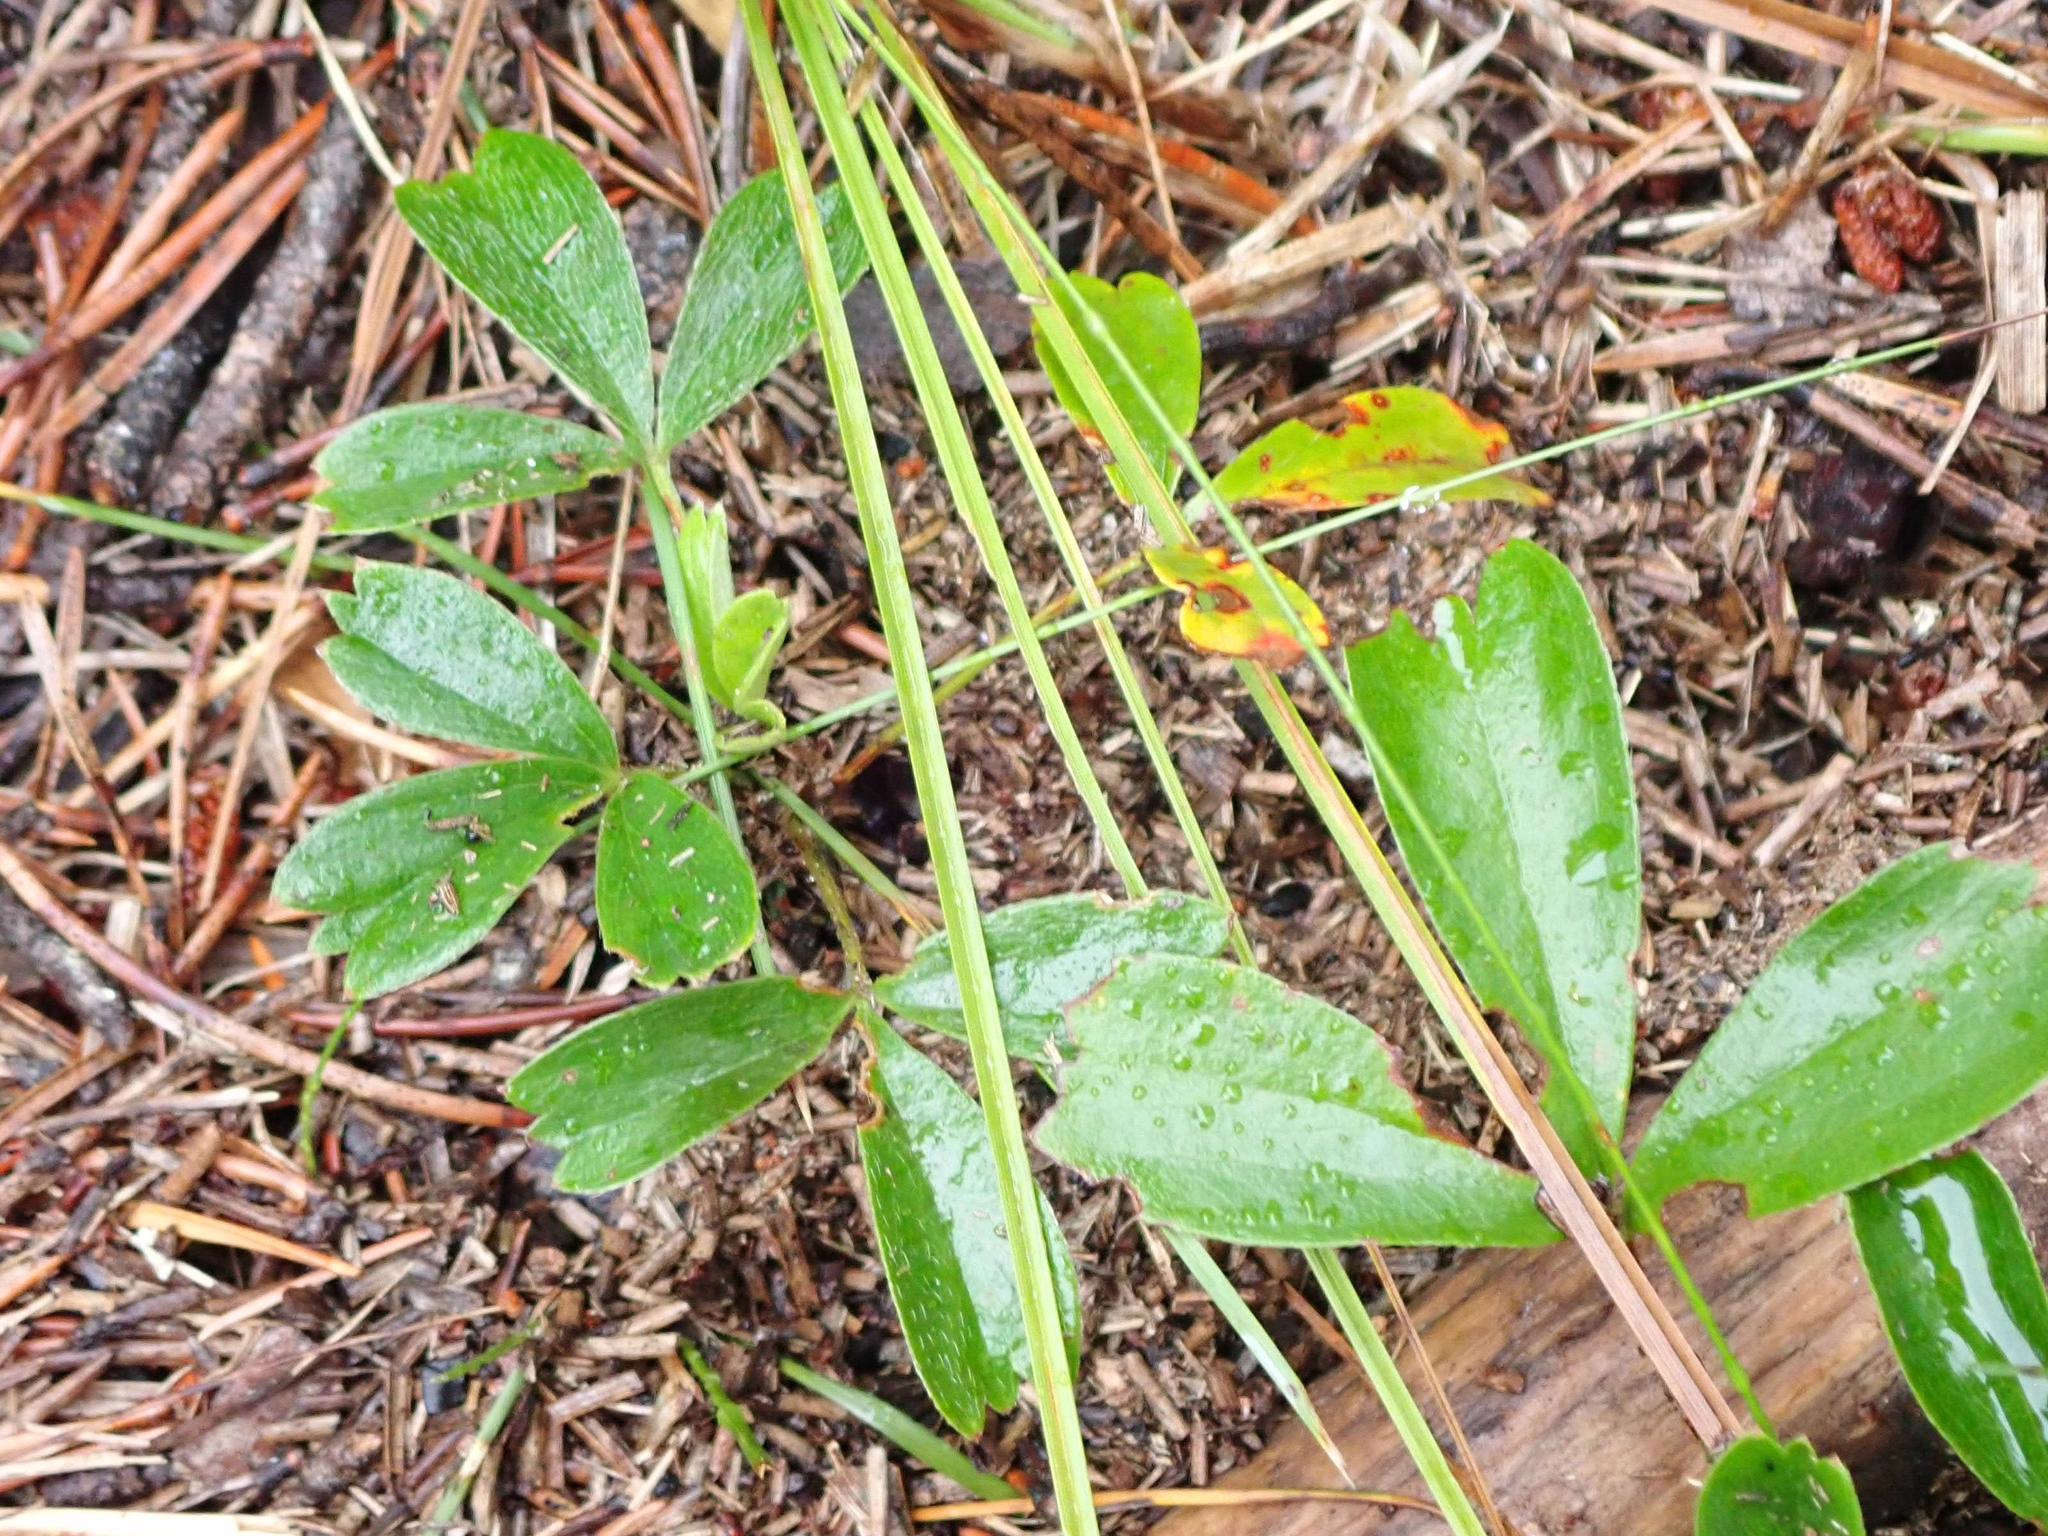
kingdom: Plantae
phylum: Tracheophyta
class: Magnoliopsida
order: Rosales
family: Rosaceae
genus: Sibbaldia
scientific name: Sibbaldia tridentata
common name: Three-toothed cinquefoil
